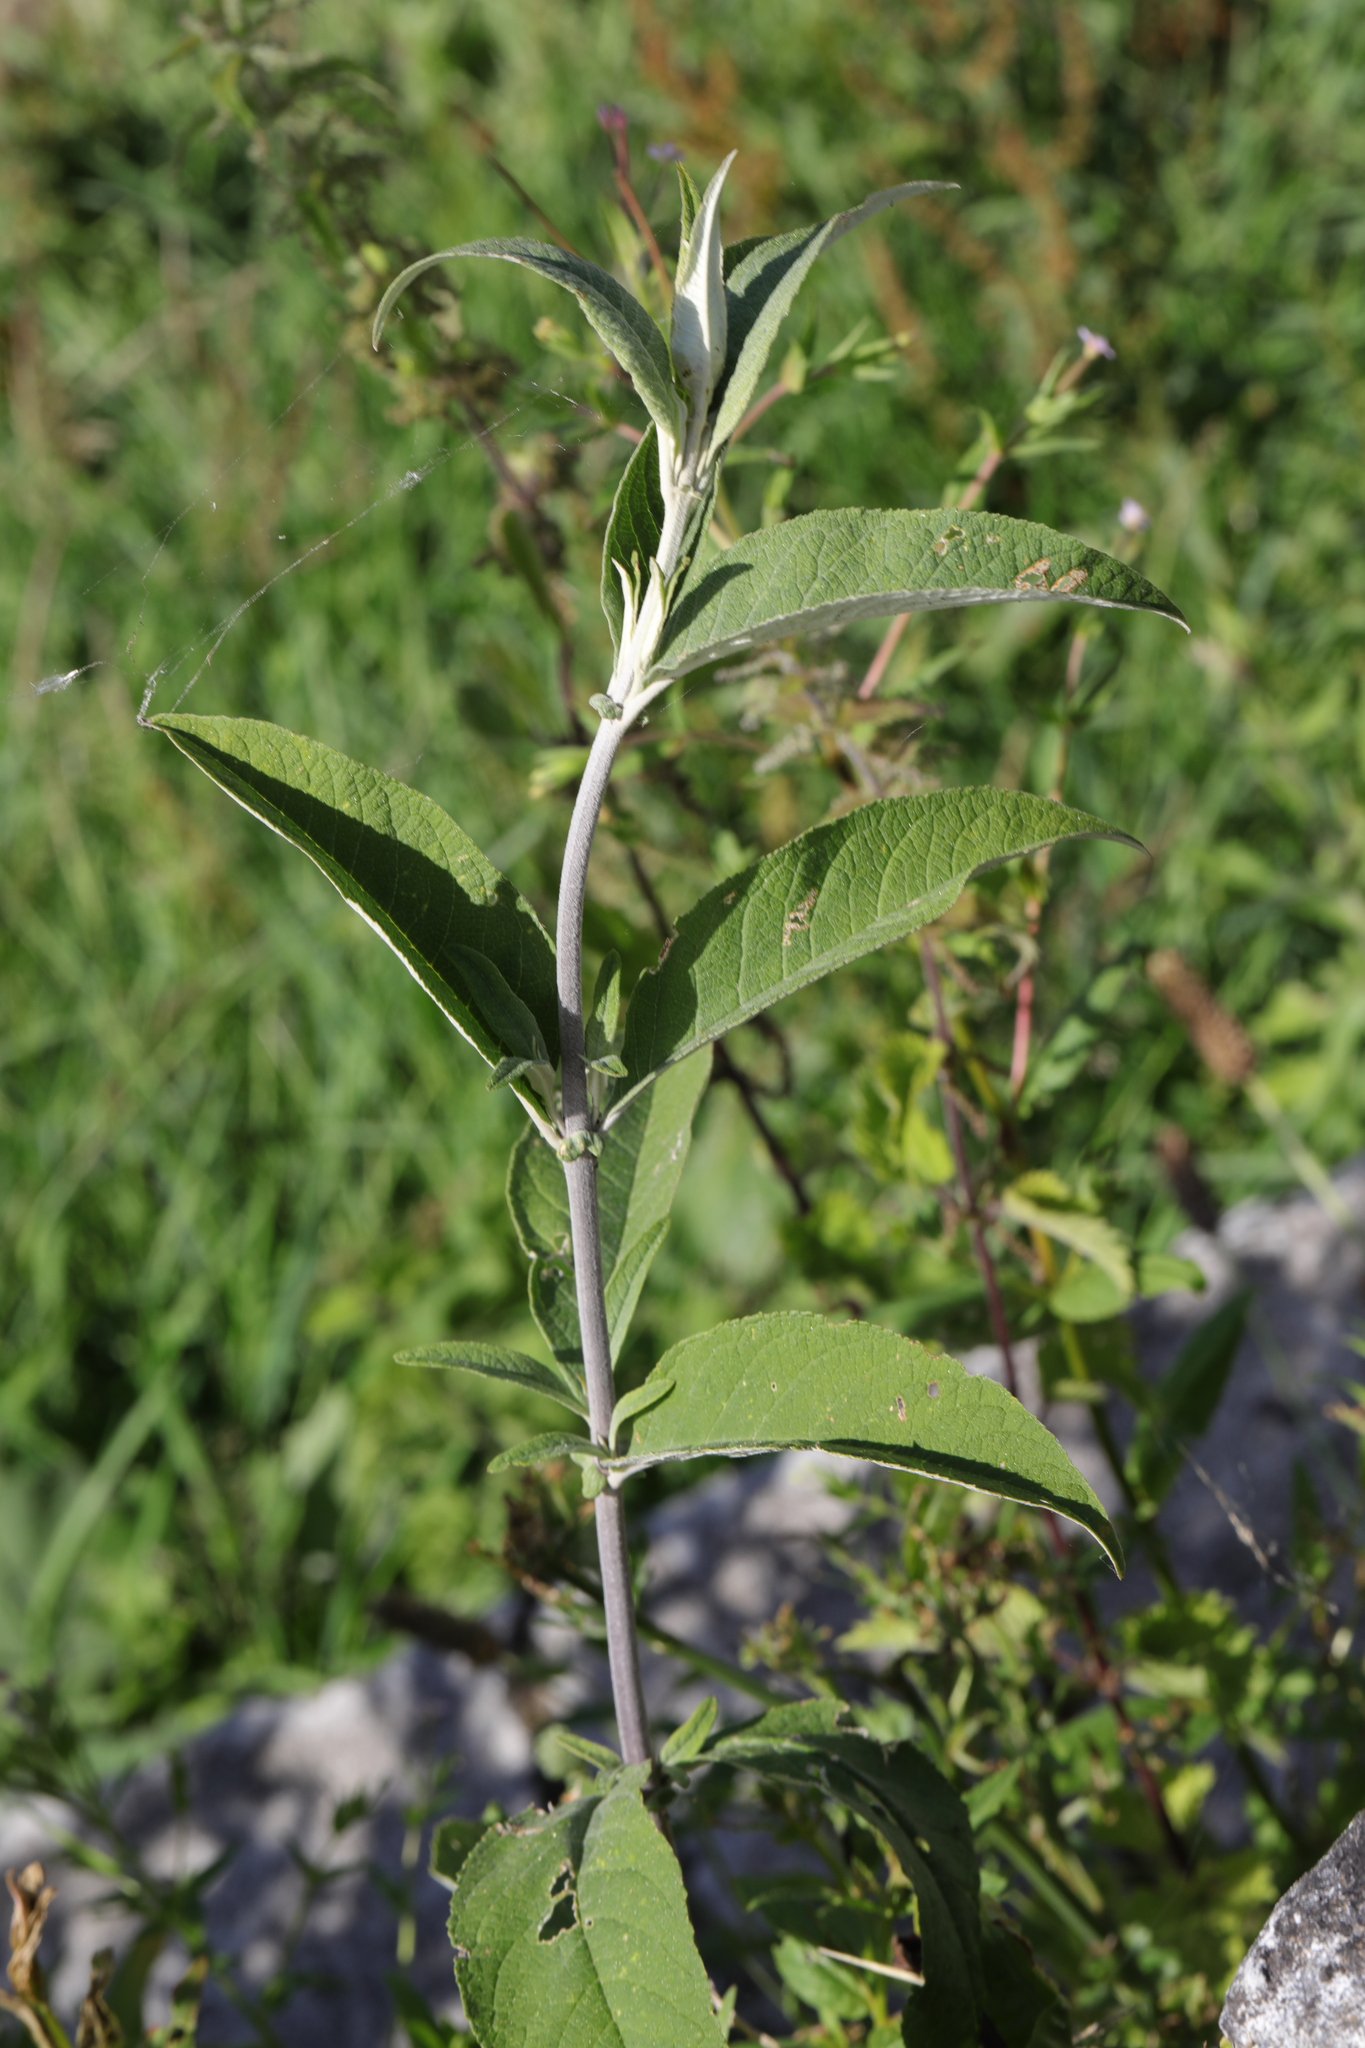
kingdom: Plantae
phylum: Tracheophyta
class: Magnoliopsida
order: Lamiales
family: Scrophulariaceae
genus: Buddleja
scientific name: Buddleja davidii
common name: Butterfly-bush
